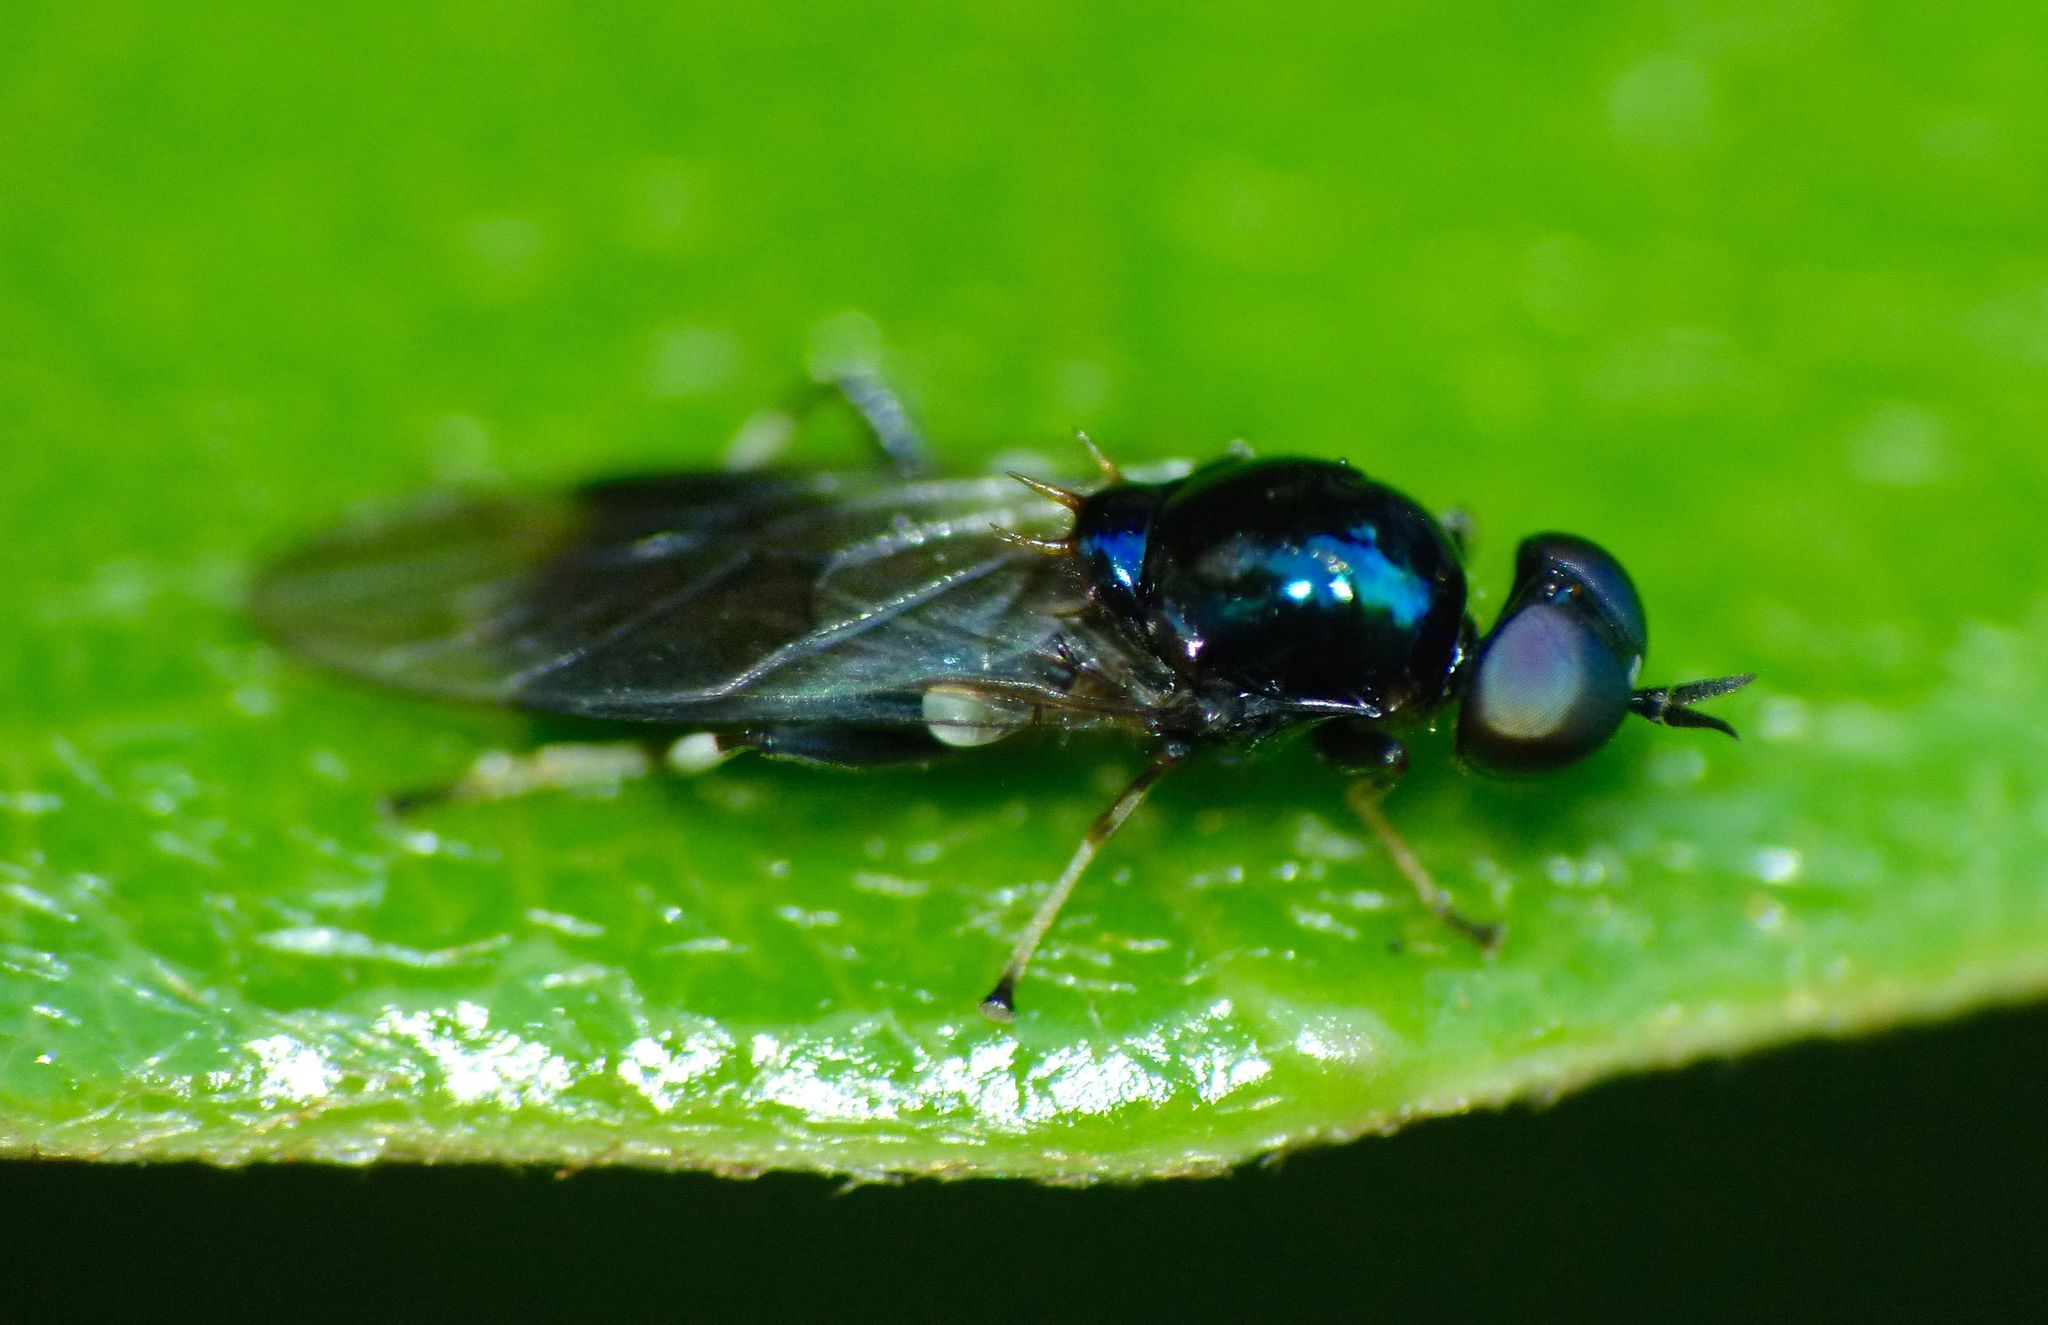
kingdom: Animalia
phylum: Arthropoda
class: Insecta
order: Diptera
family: Stratiomyidae
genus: Zealandoberis
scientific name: Zealandoberis lacuans
